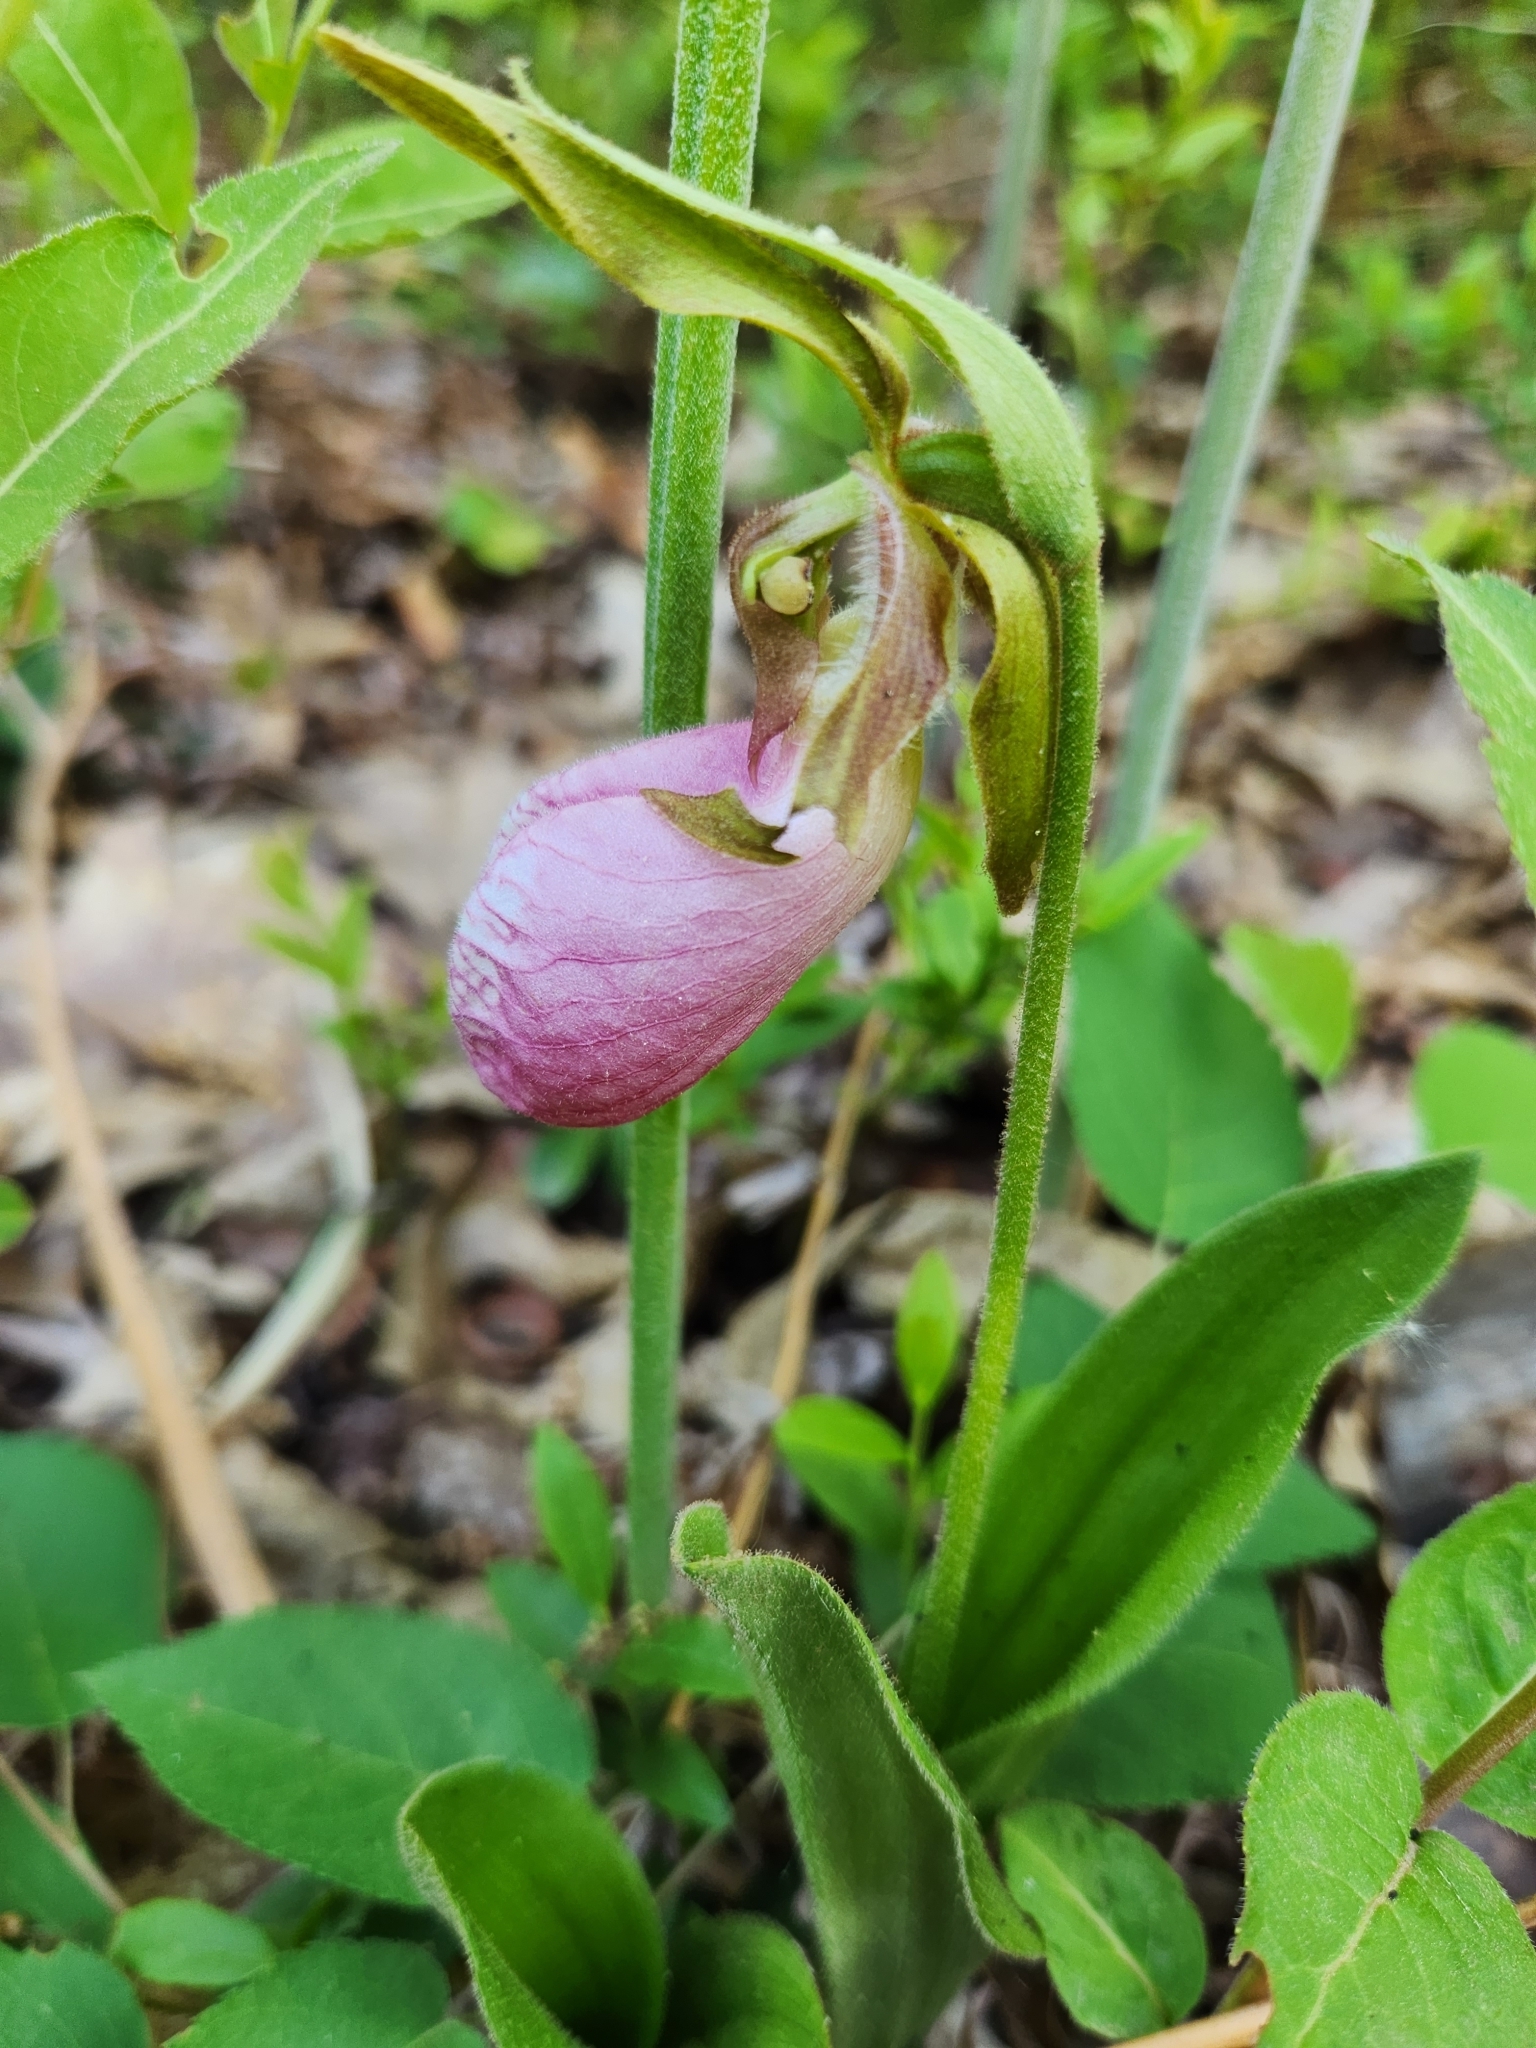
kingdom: Plantae
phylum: Tracheophyta
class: Liliopsida
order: Asparagales
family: Orchidaceae
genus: Cypripedium
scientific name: Cypripedium acaule
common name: Pink lady's-slipper
